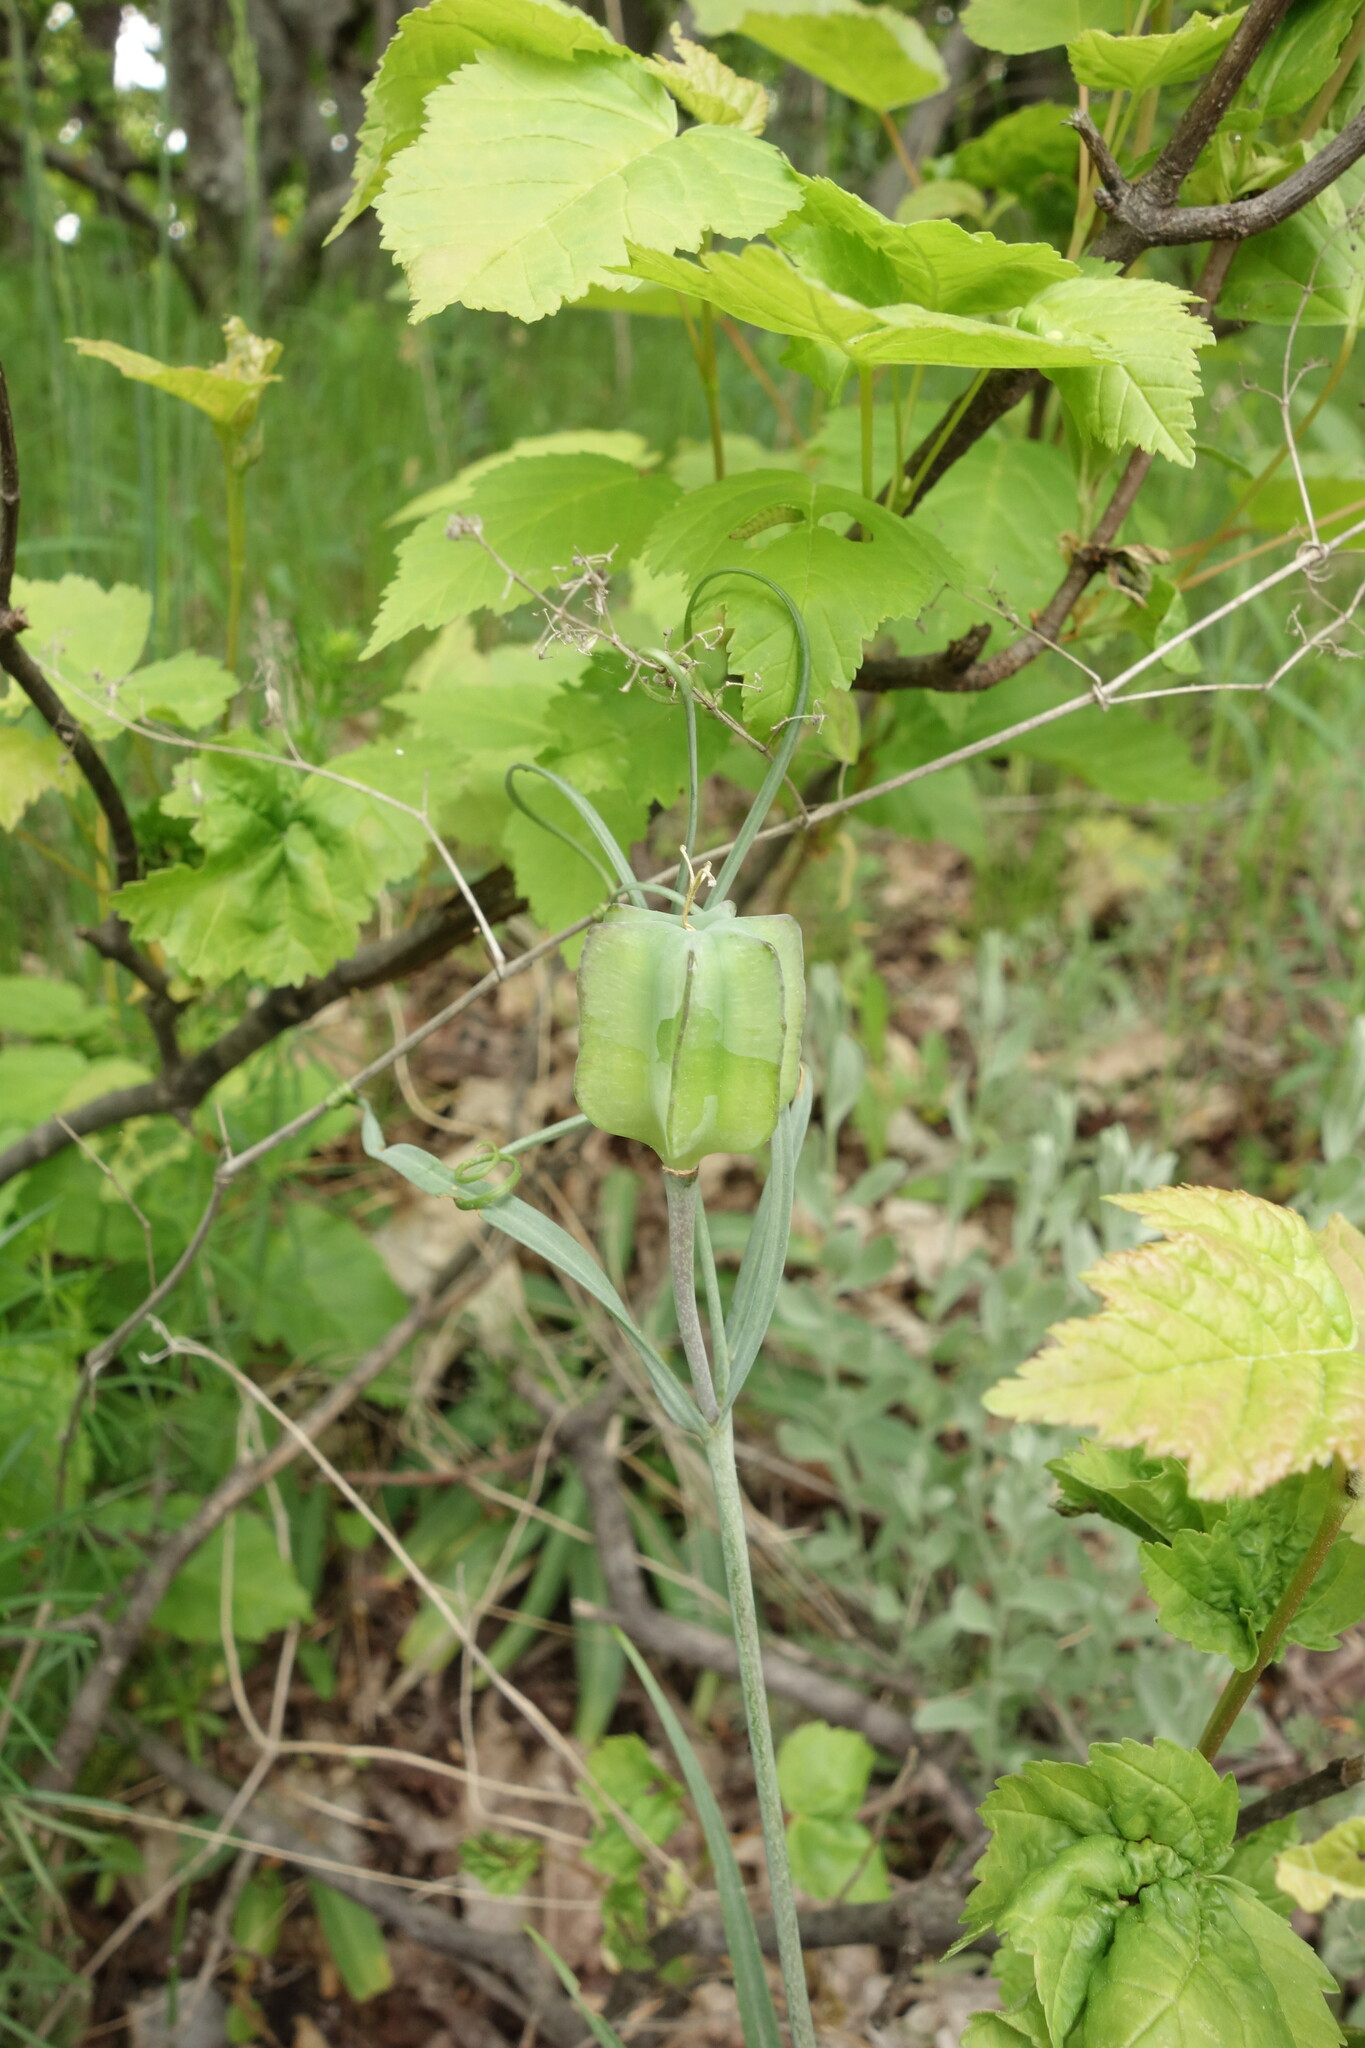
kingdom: Plantae
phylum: Tracheophyta
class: Liliopsida
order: Liliales
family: Liliaceae
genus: Fritillaria
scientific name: Fritillaria ruthenica
